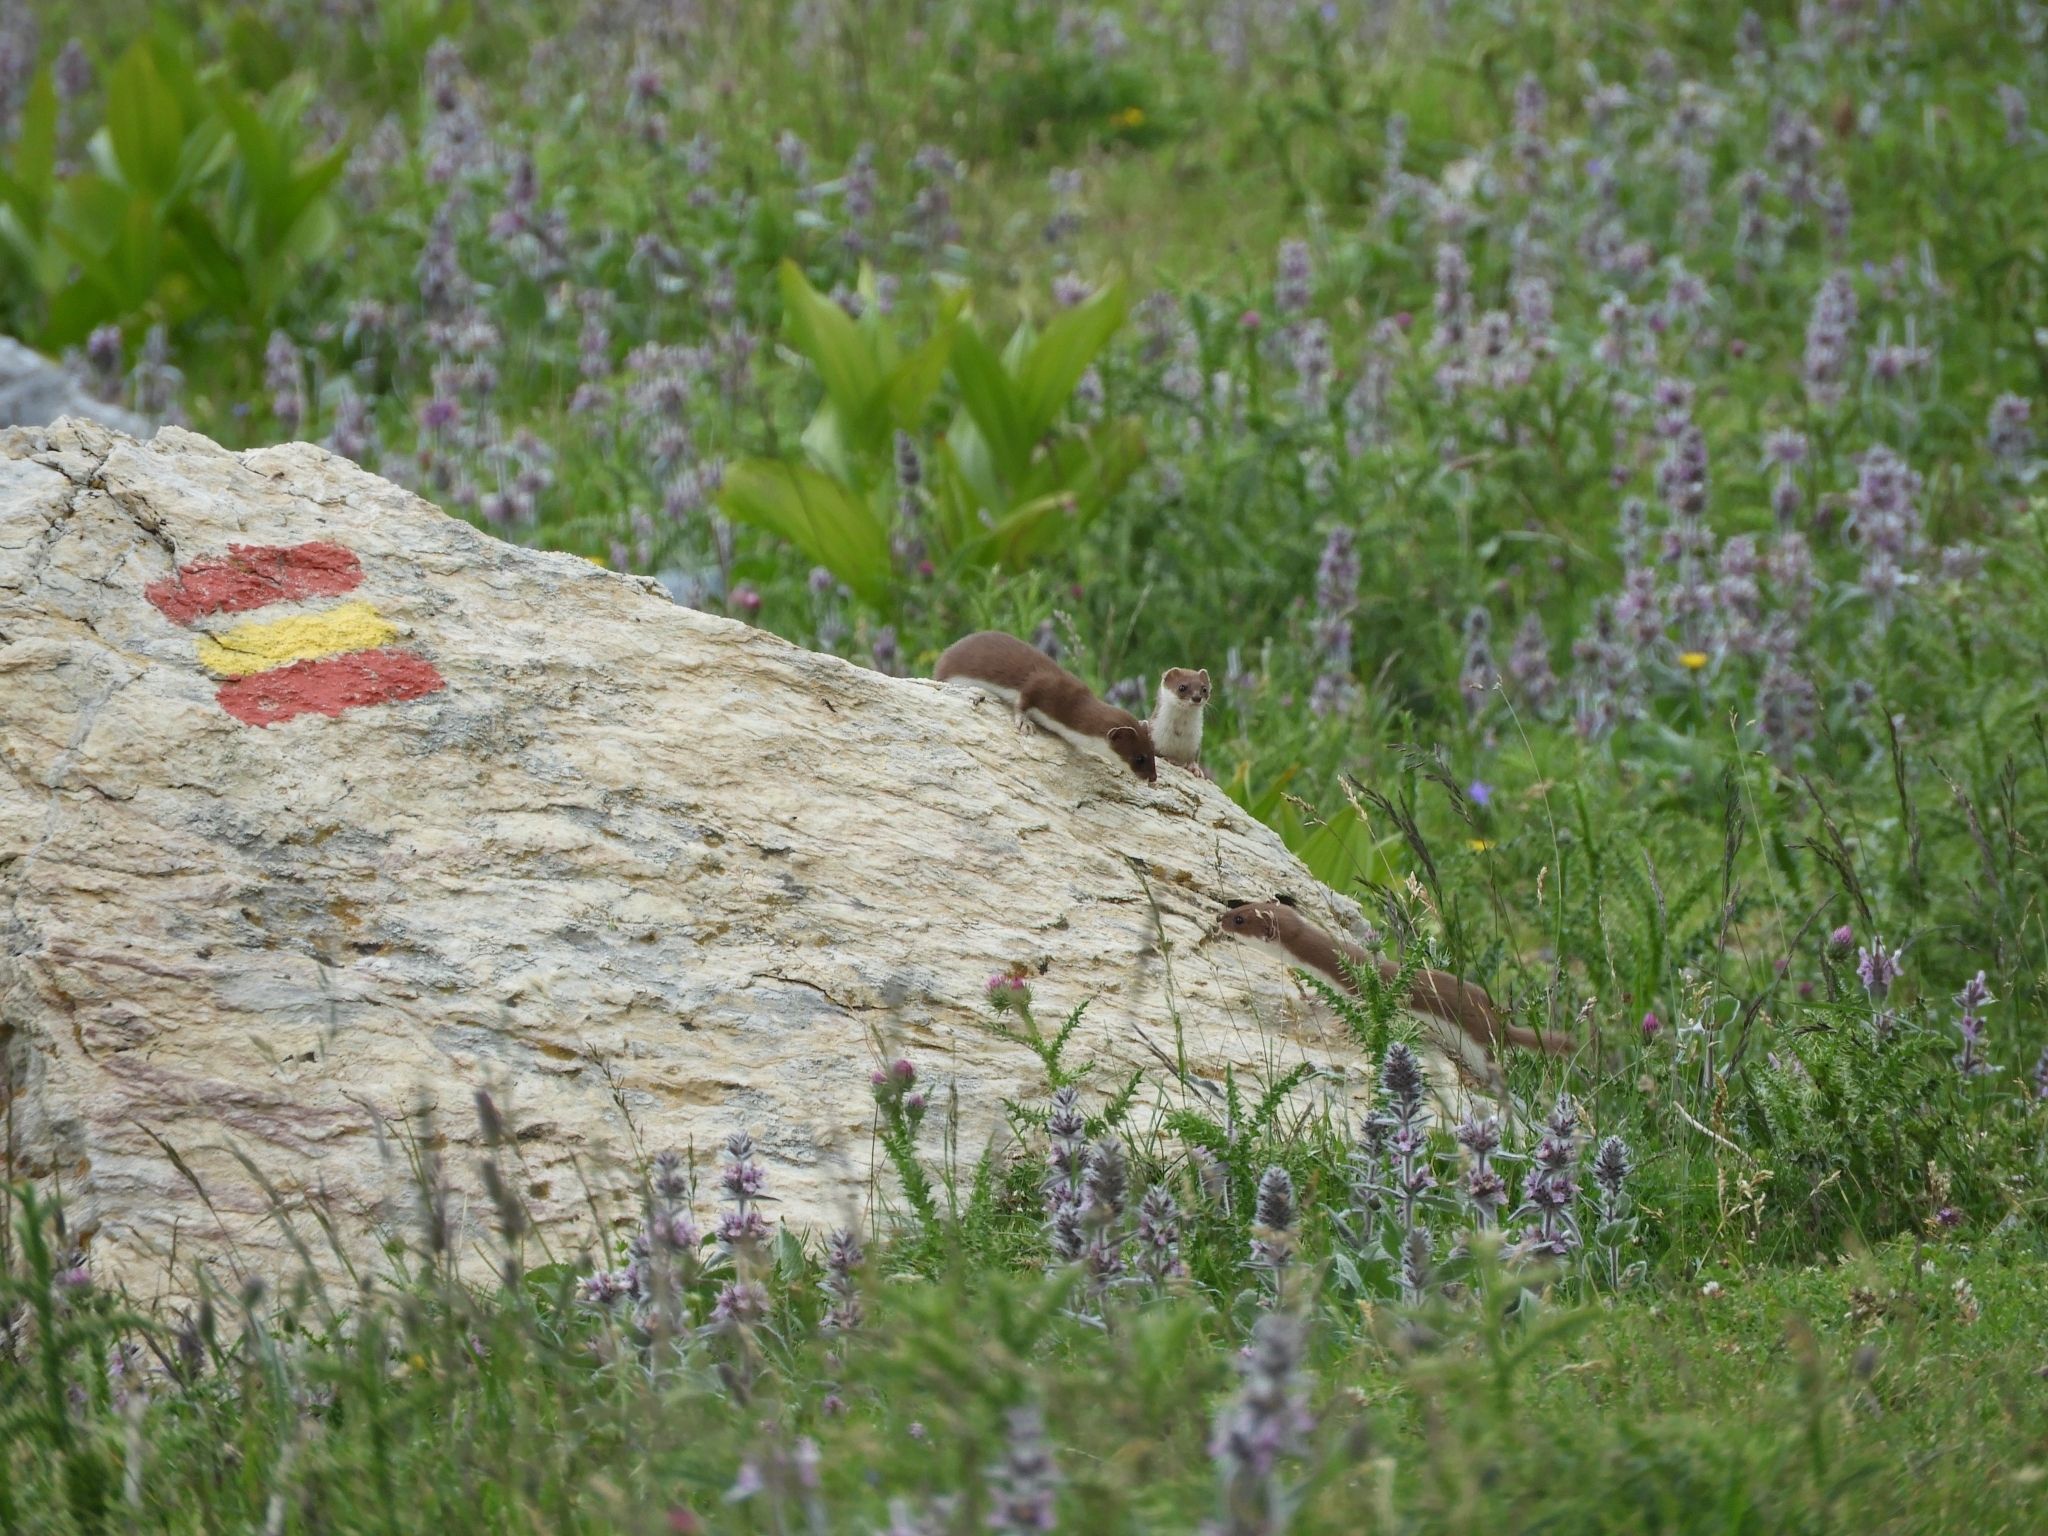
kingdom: Animalia
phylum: Chordata
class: Mammalia
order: Carnivora
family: Mustelidae
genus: Mustela
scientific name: Mustela nivalis
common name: Least weasel
